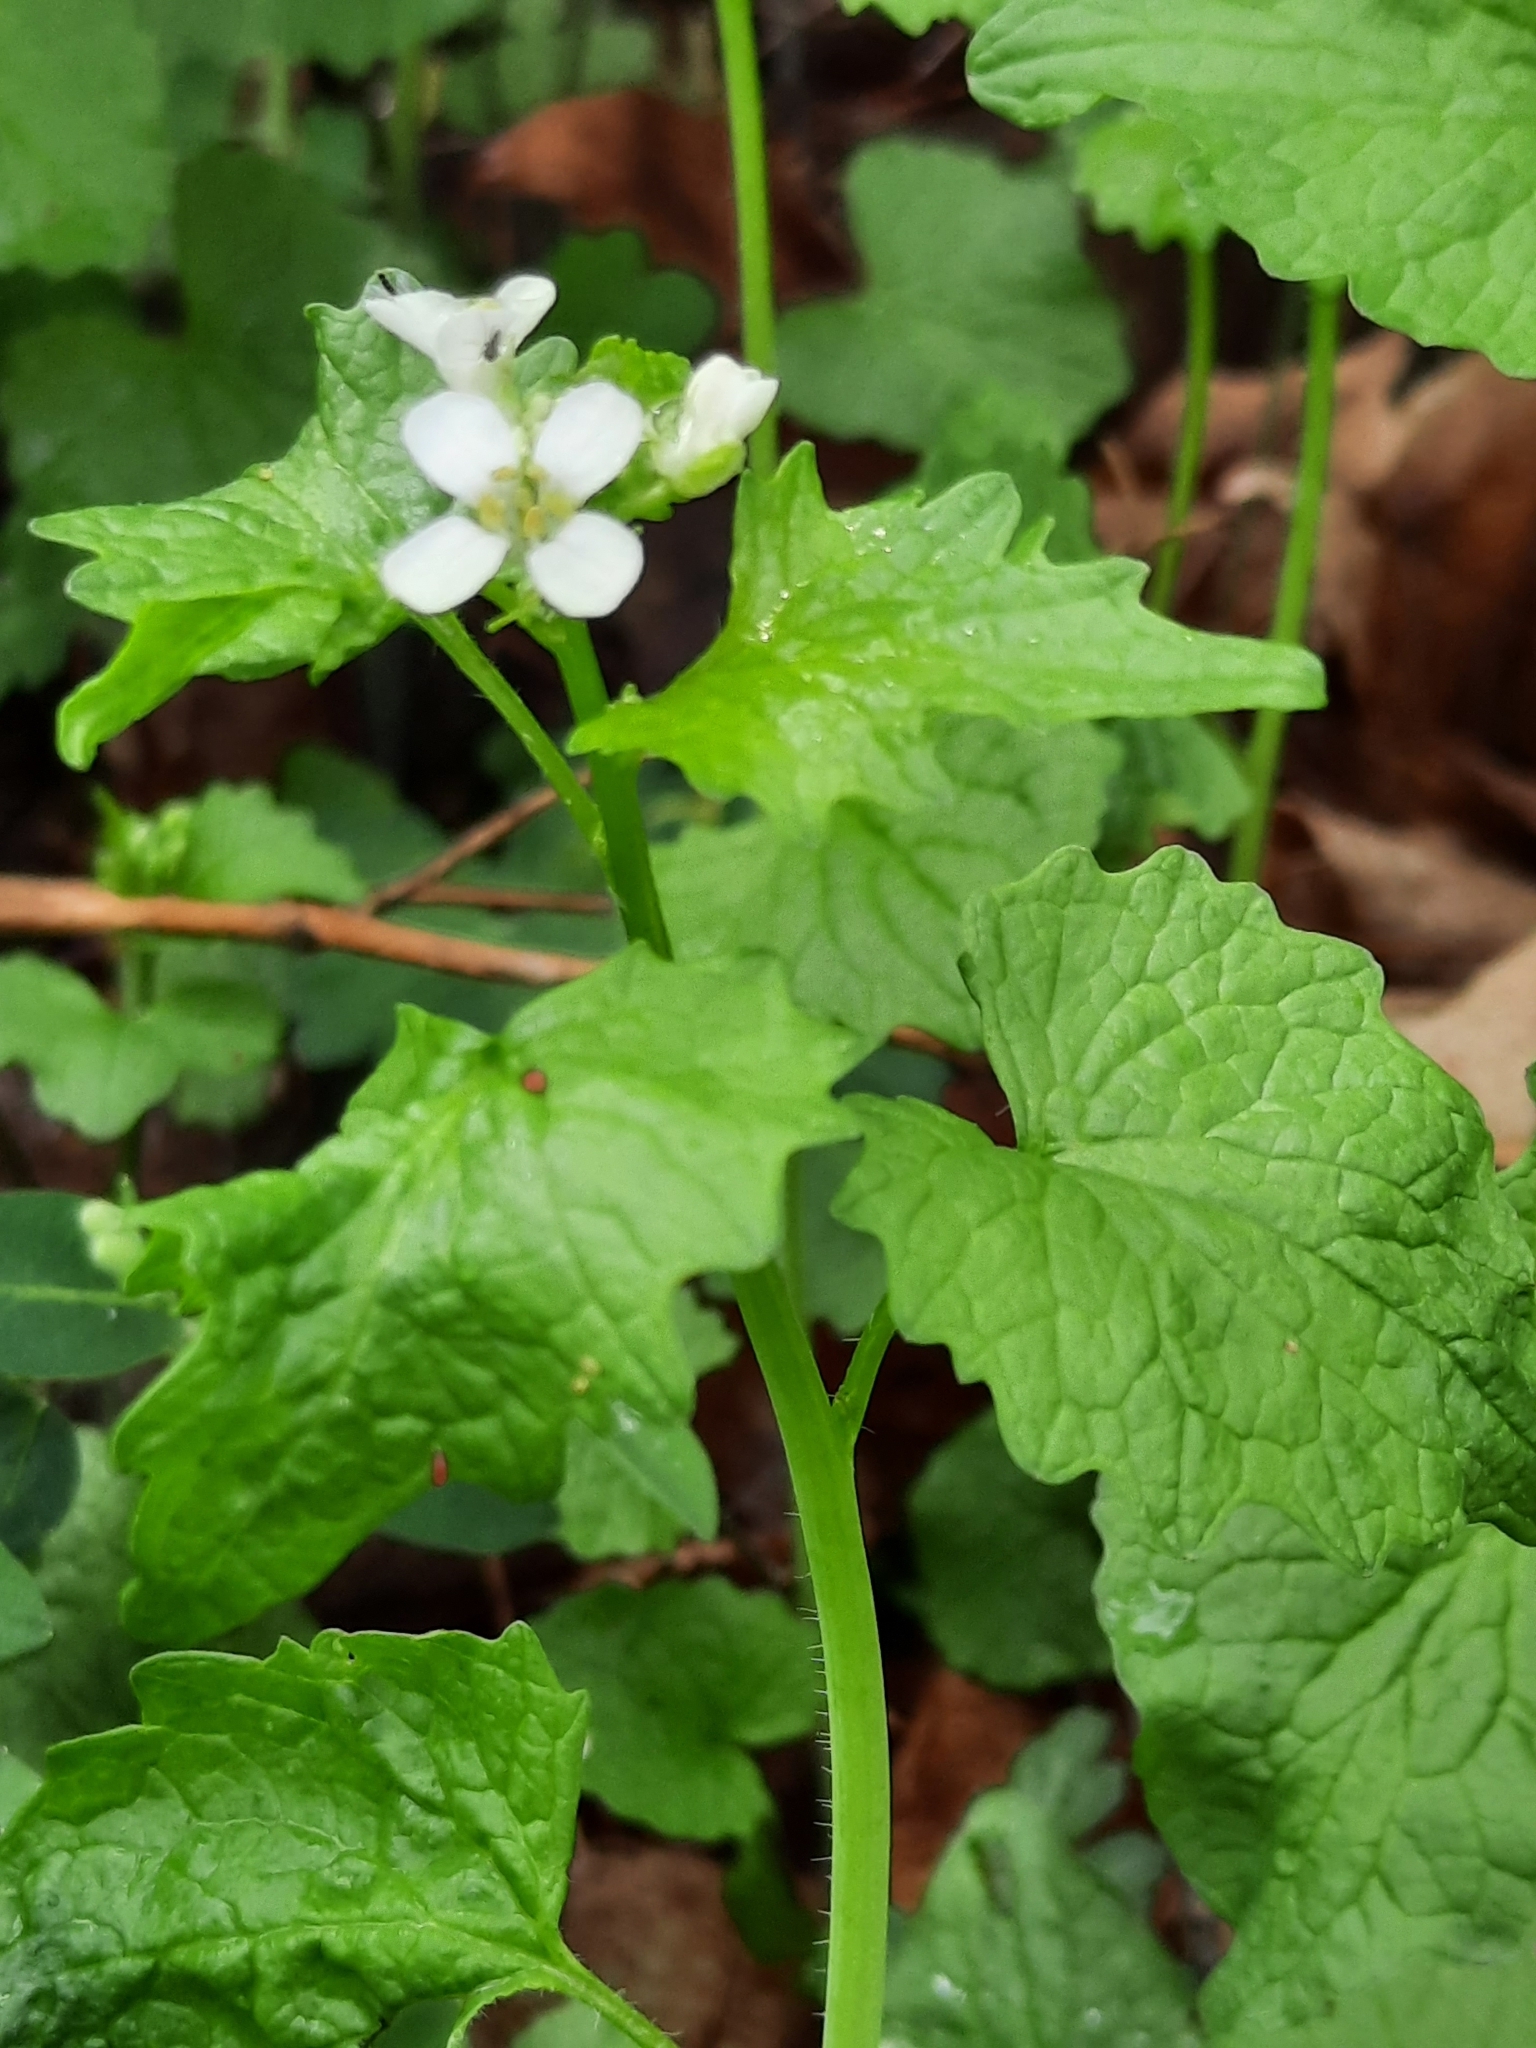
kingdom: Plantae
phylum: Tracheophyta
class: Magnoliopsida
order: Brassicales
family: Brassicaceae
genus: Alliaria
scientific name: Alliaria petiolata
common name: Garlic mustard
